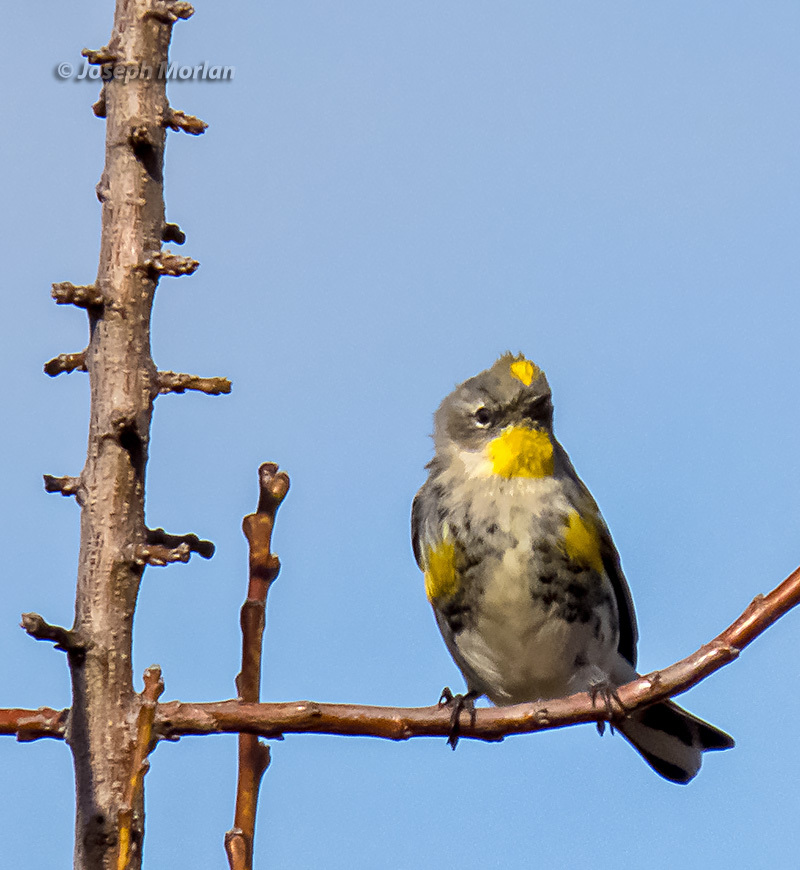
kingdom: Animalia
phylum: Chordata
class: Aves
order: Passeriformes
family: Parulidae
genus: Setophaga
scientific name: Setophaga coronata
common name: Myrtle warbler
